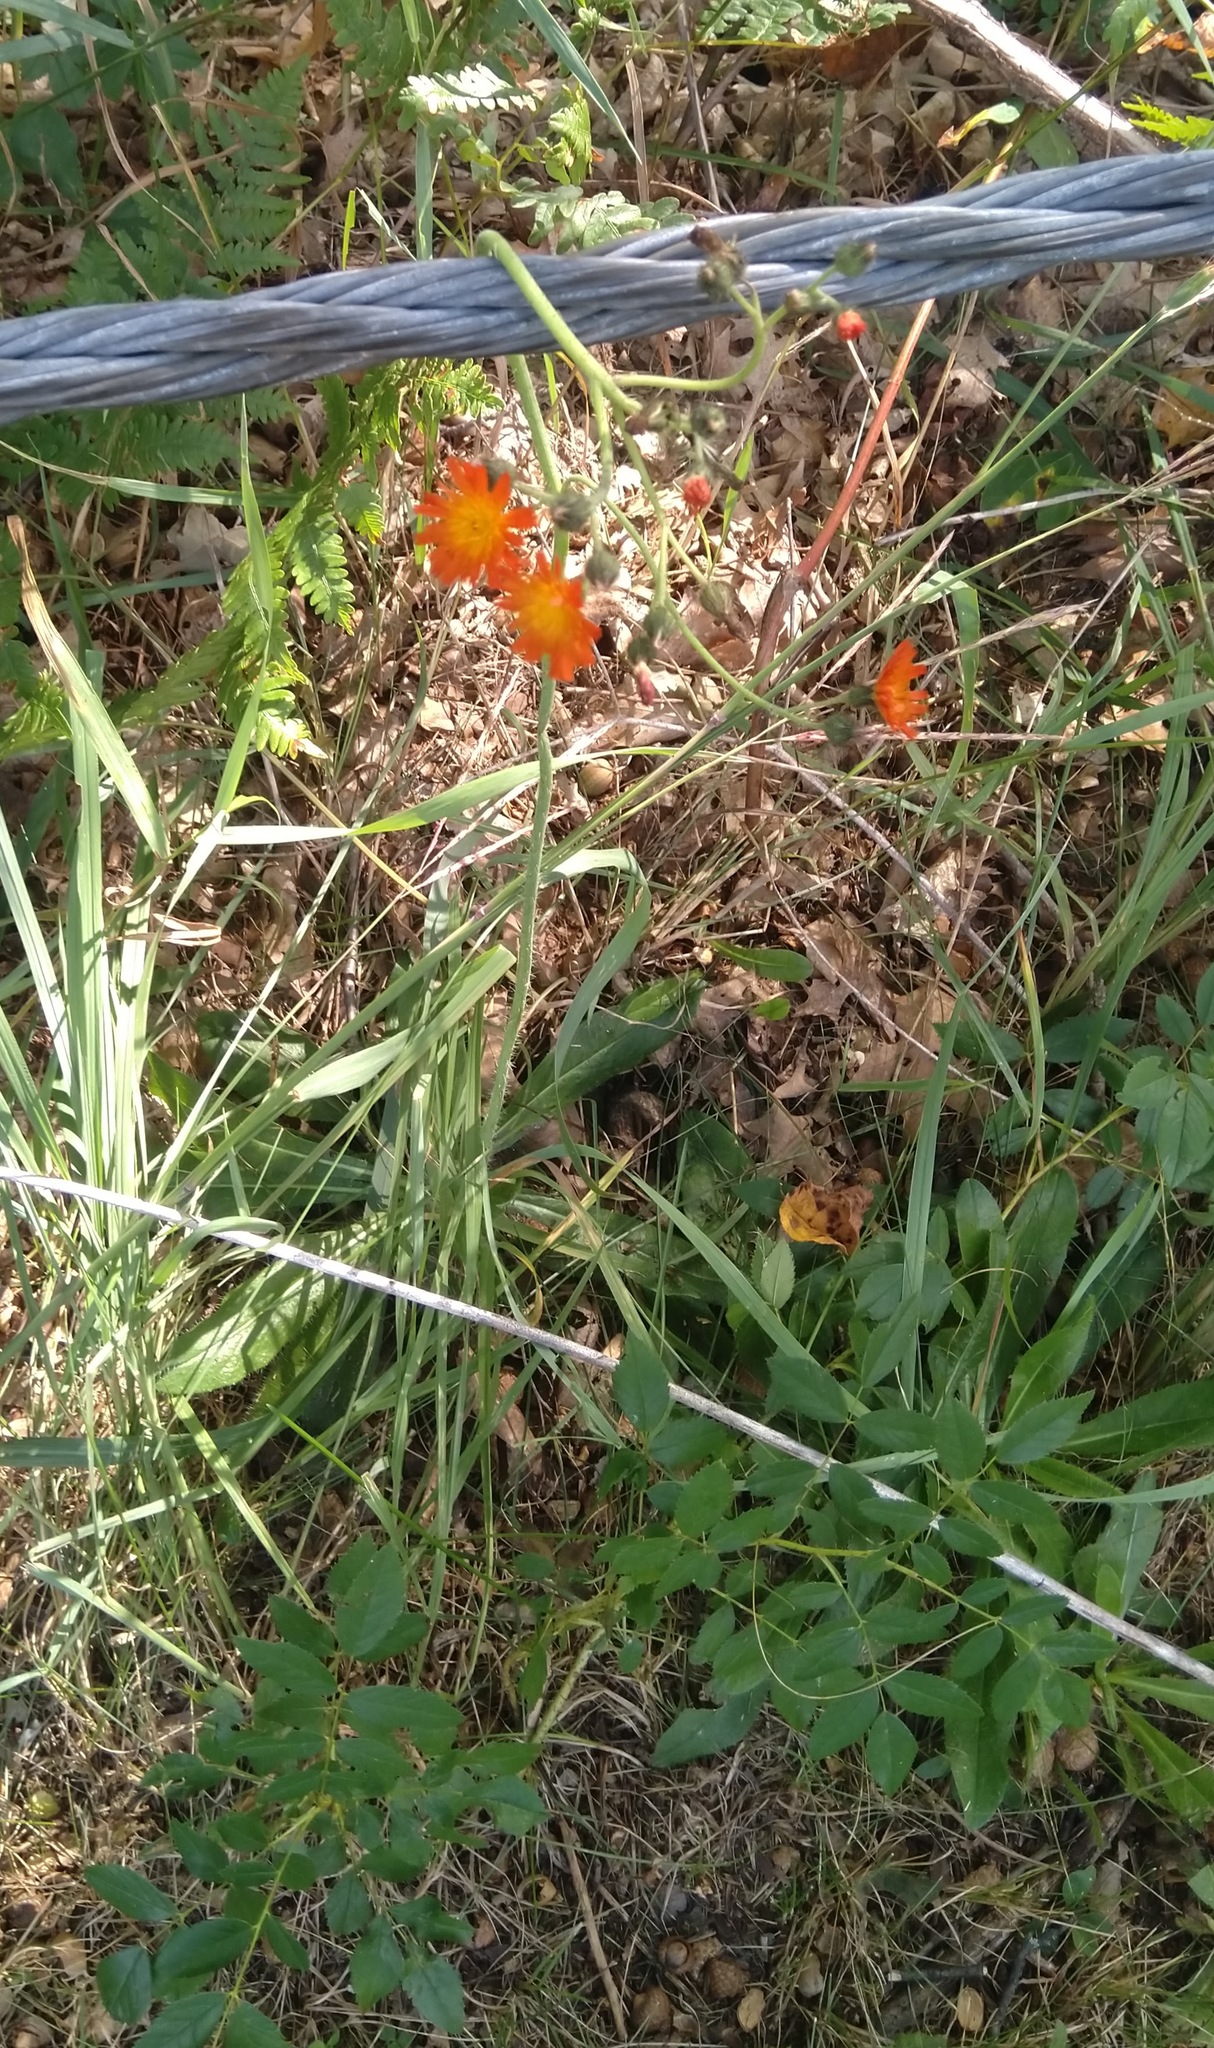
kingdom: Plantae
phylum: Tracheophyta
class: Magnoliopsida
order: Asterales
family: Asteraceae
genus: Pilosella
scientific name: Pilosella aurantiaca
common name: Fox-and-cubs
